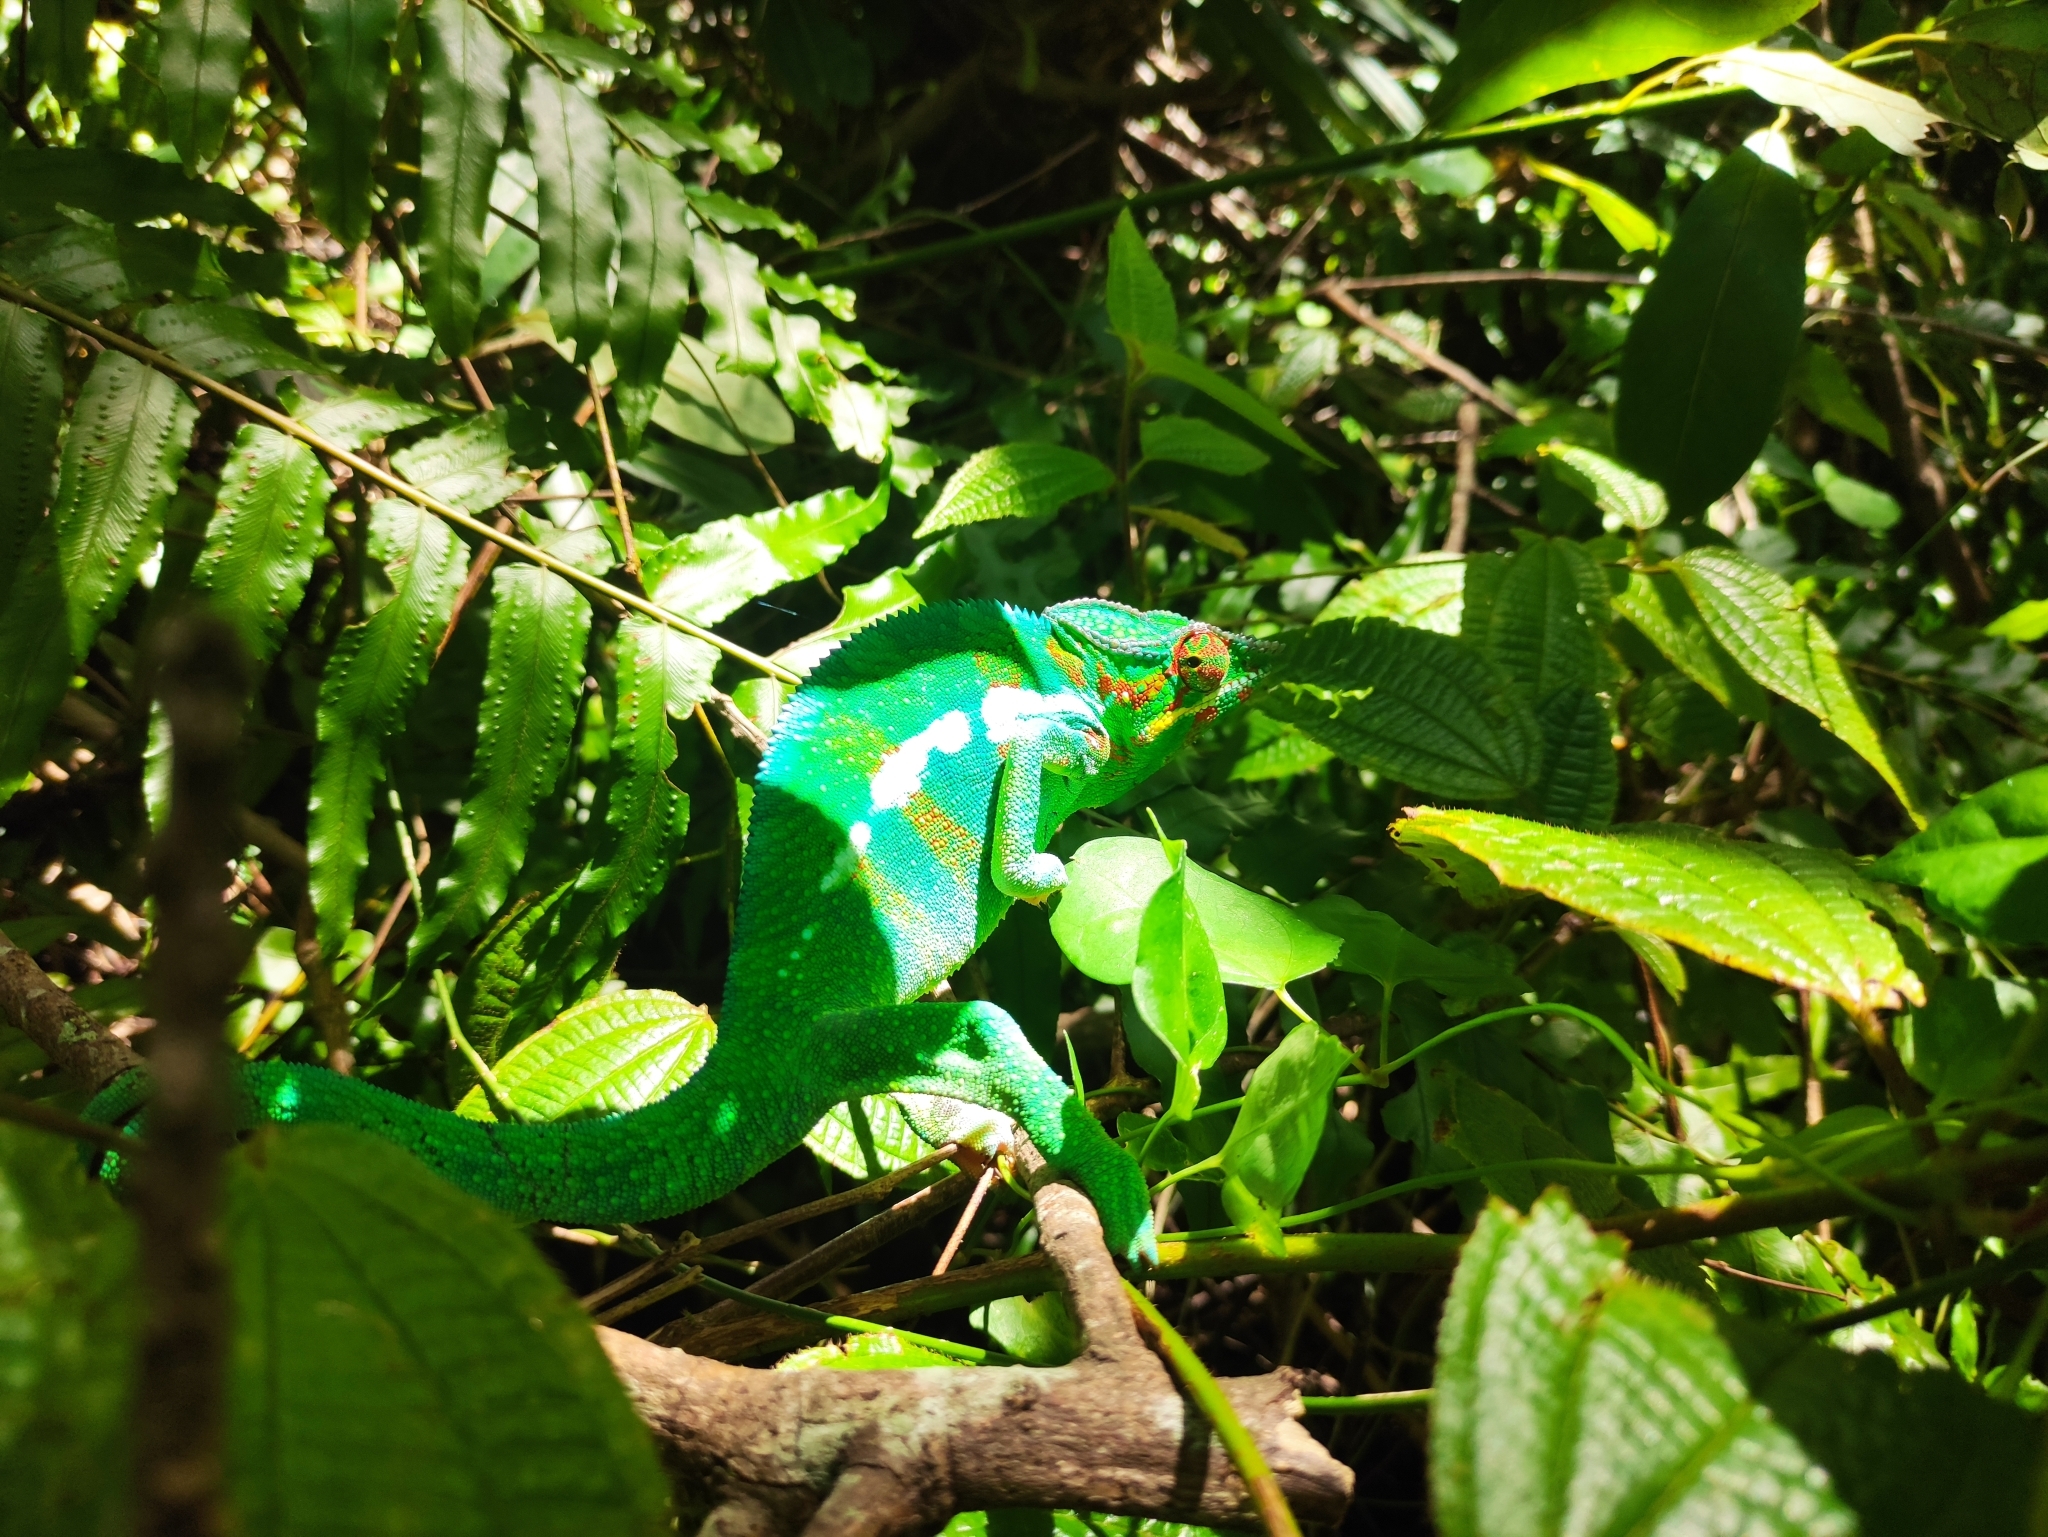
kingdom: Animalia
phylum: Chordata
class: Squamata
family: Chamaeleonidae
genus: Furcifer
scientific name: Furcifer pardalis
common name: Panther chameleon
